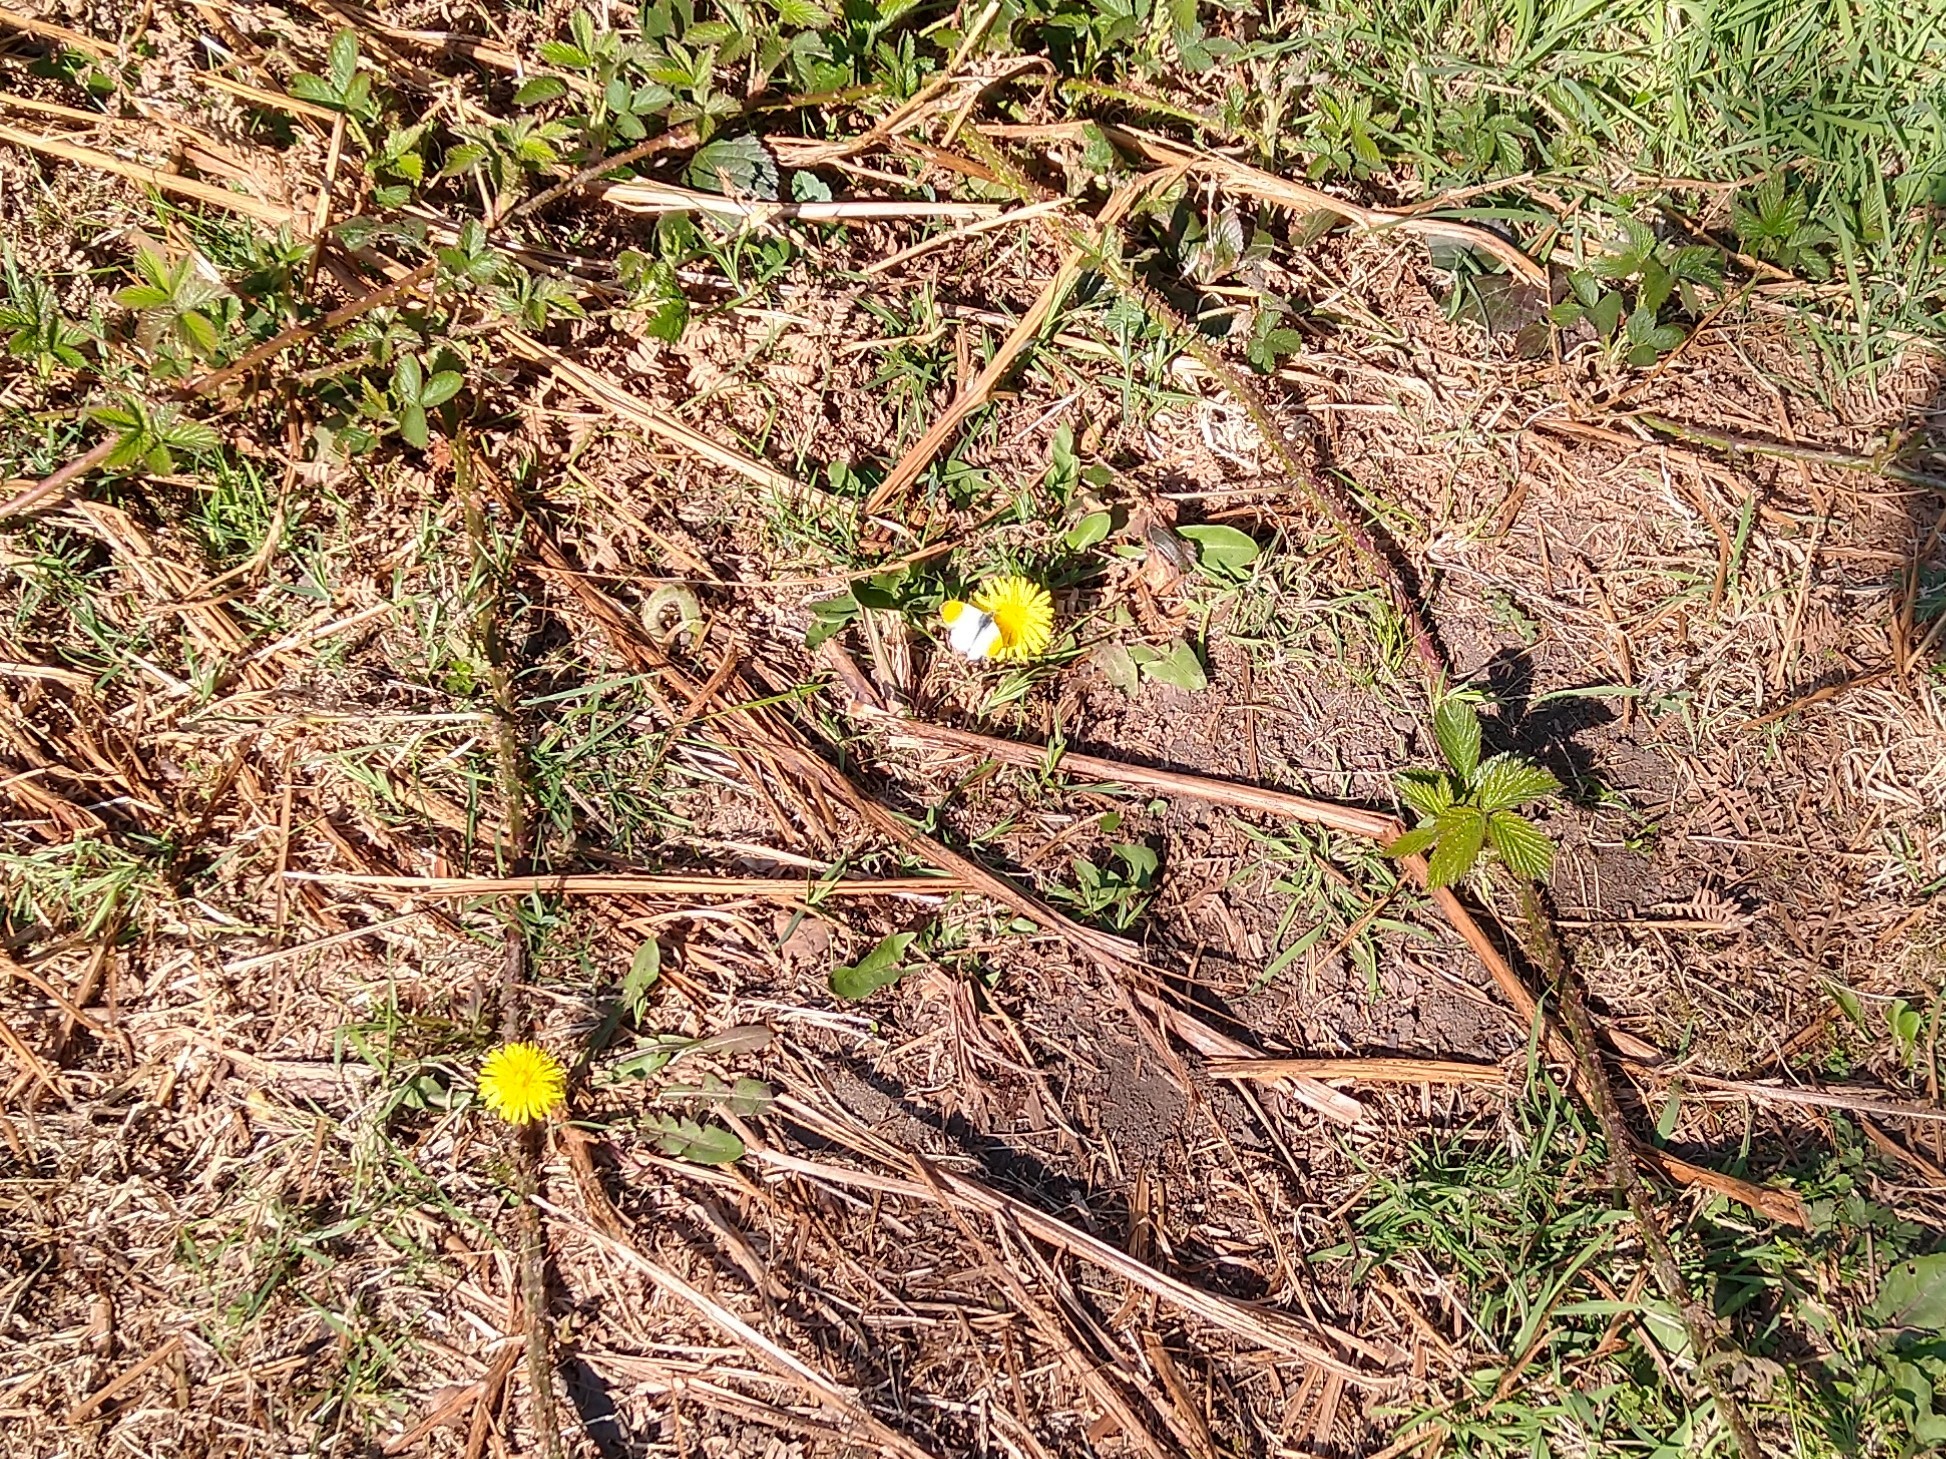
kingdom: Animalia
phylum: Arthropoda
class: Insecta
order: Lepidoptera
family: Pieridae
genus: Anthocharis
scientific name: Anthocharis cardamines
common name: Orange-tip
